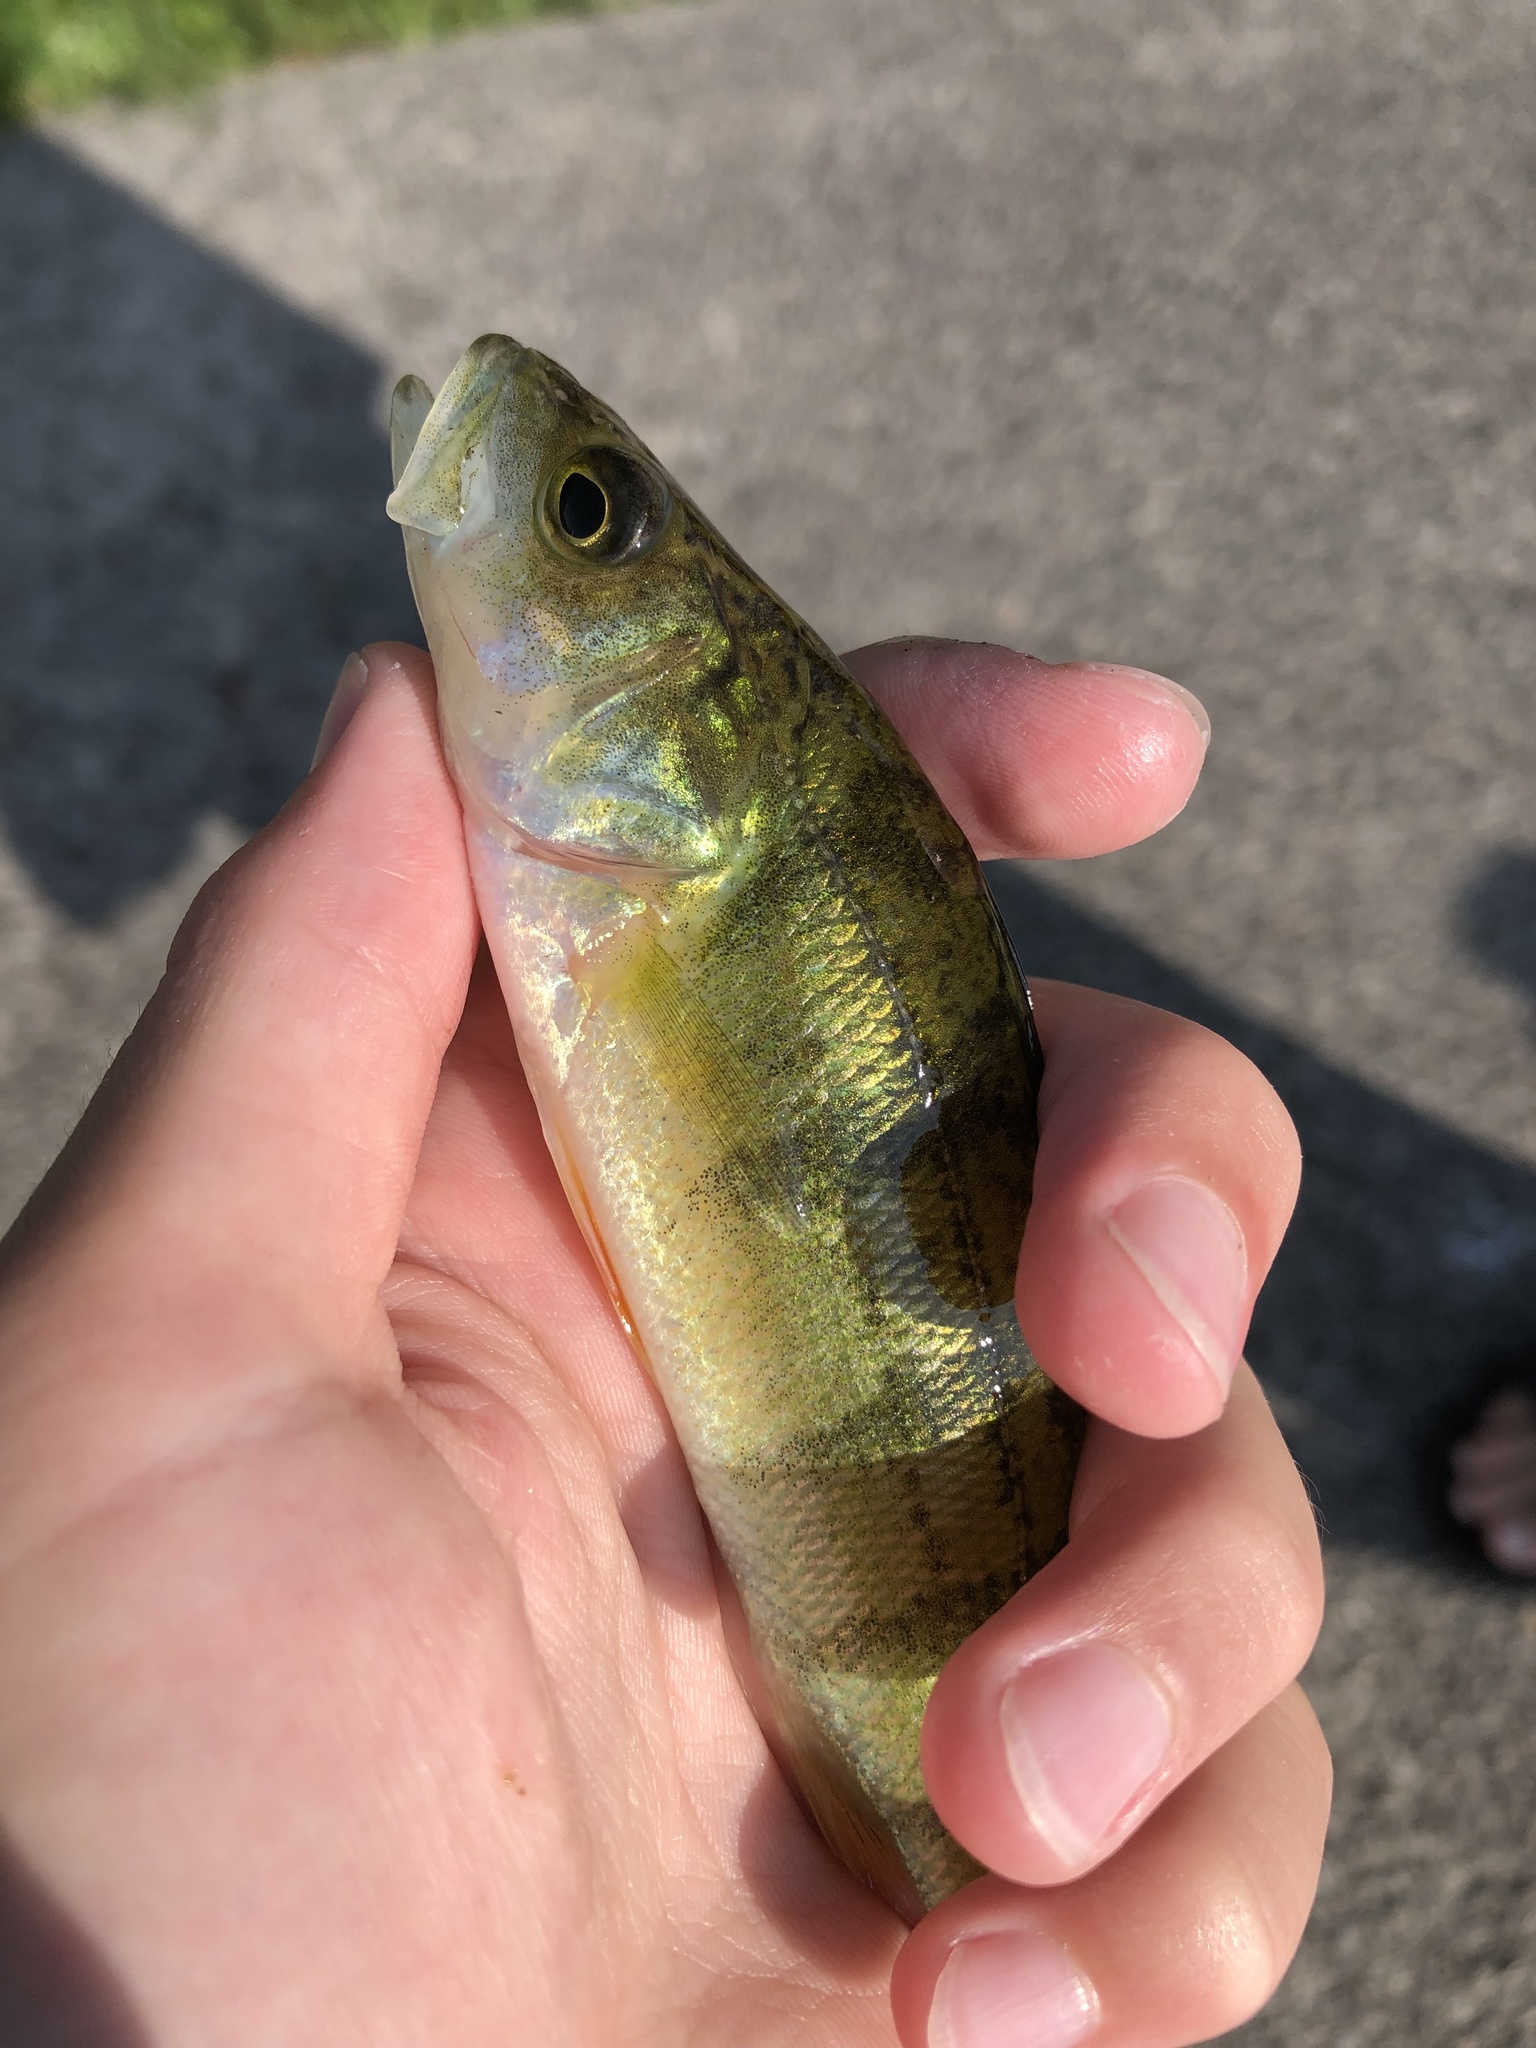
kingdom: Animalia
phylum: Chordata
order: Perciformes
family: Percidae
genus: Perca
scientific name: Perca flavescens
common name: Yellow perch
